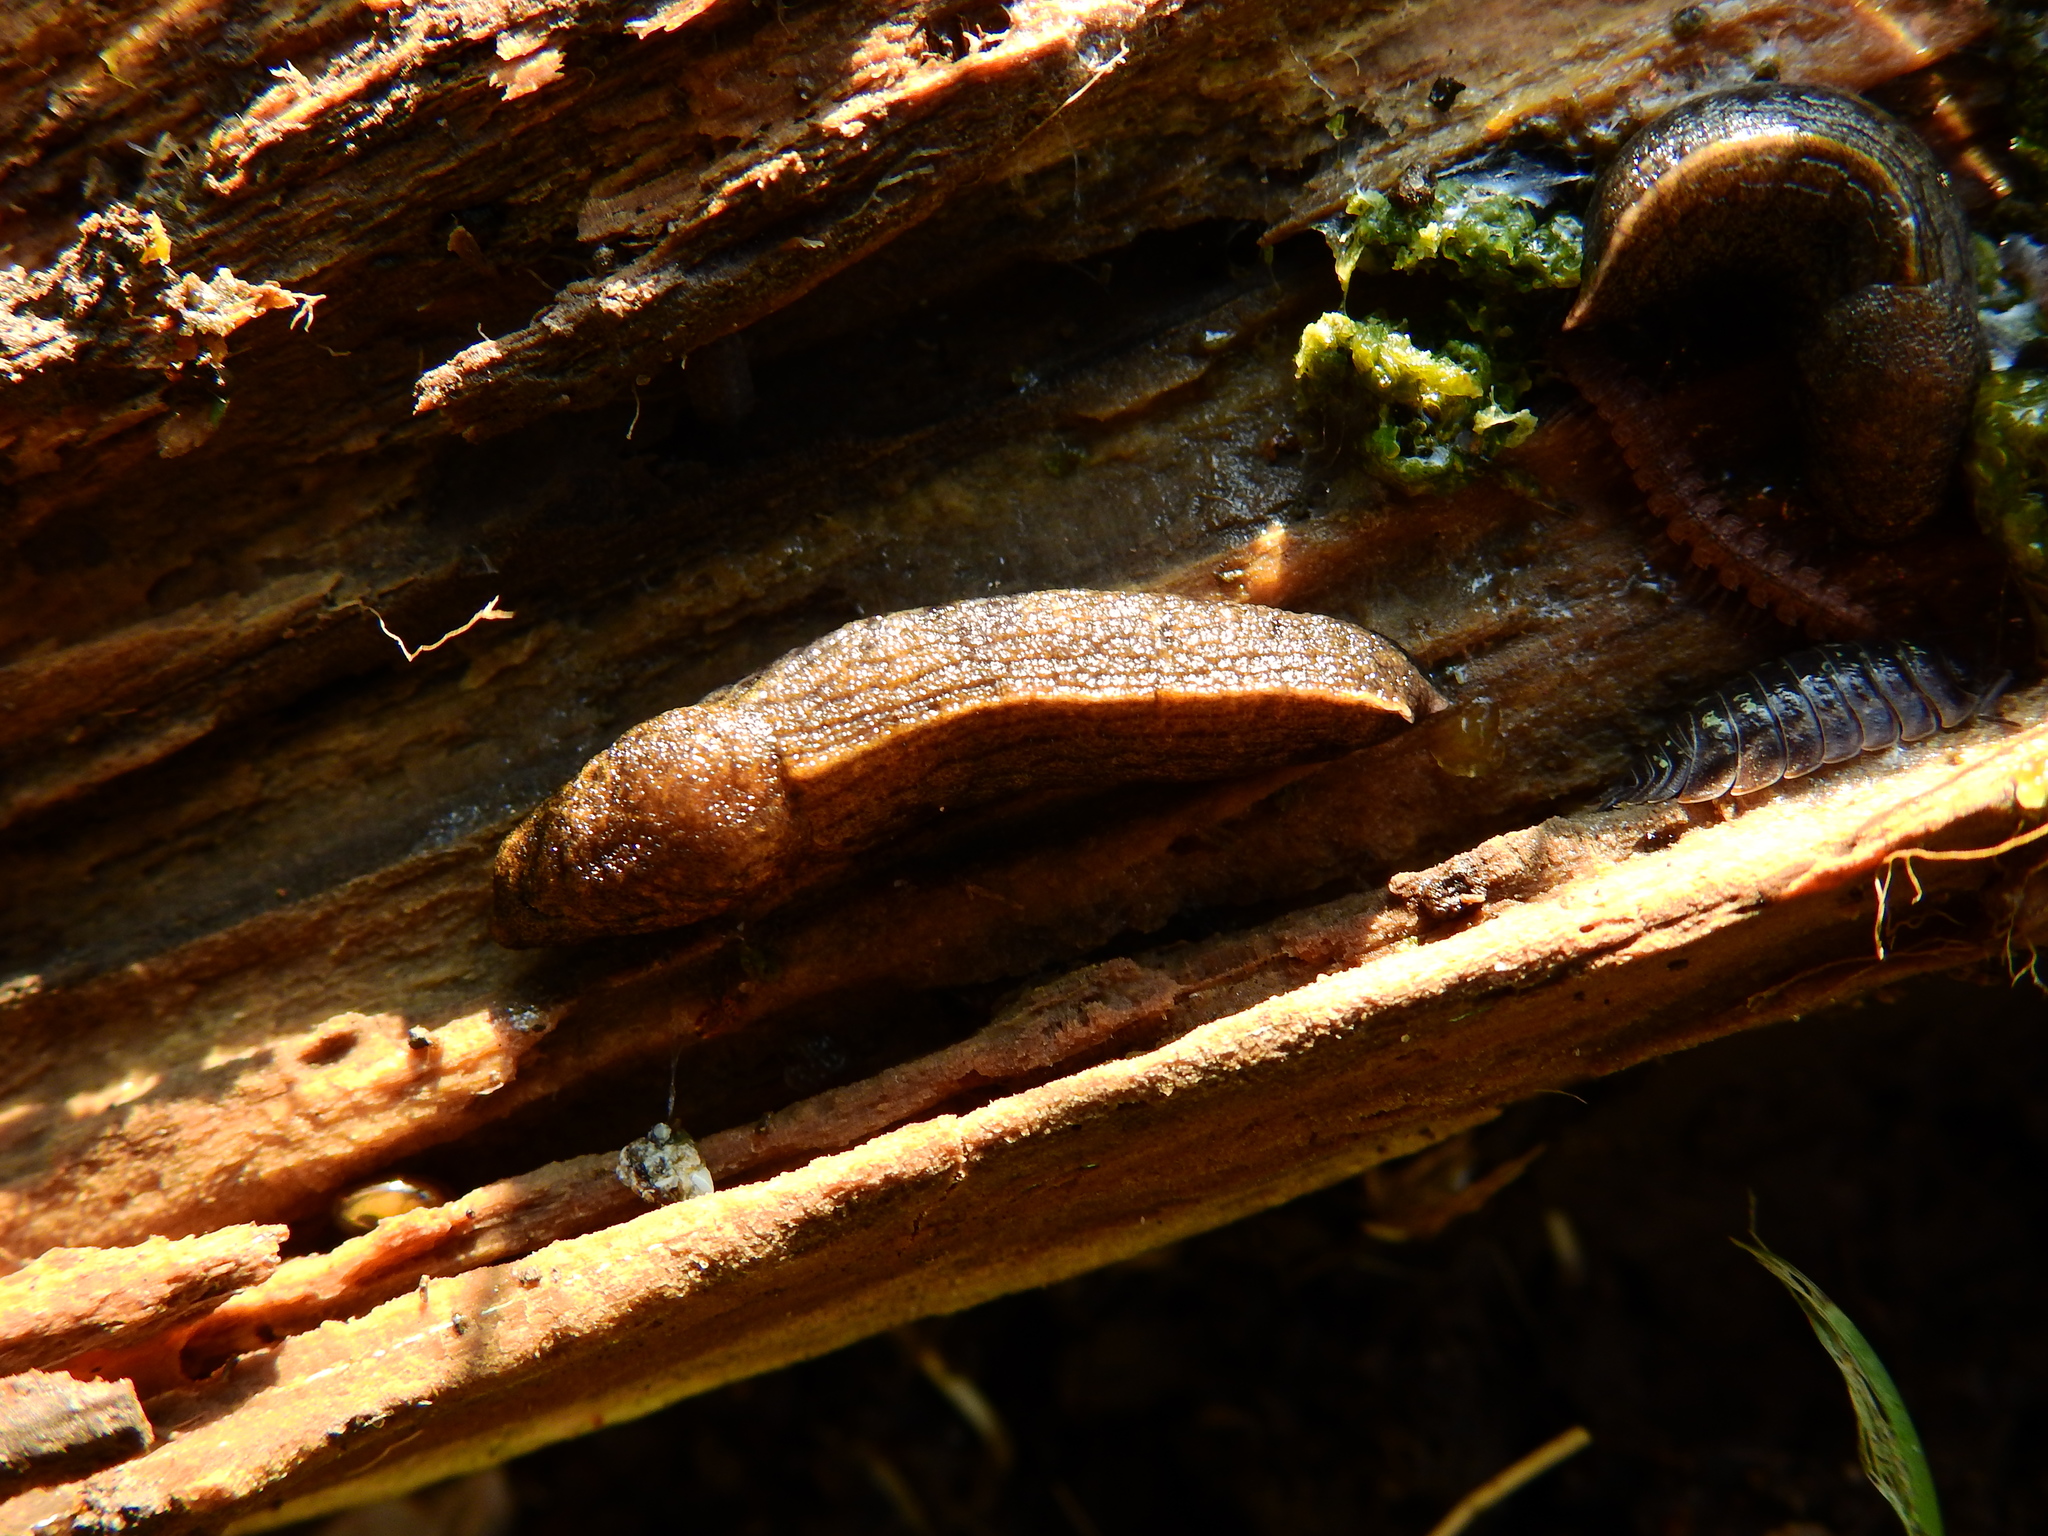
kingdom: Animalia
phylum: Mollusca
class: Gastropoda
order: Stylommatophora
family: Milacidae
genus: Tandonia
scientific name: Tandonia budapestensis
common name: Budapest slug
